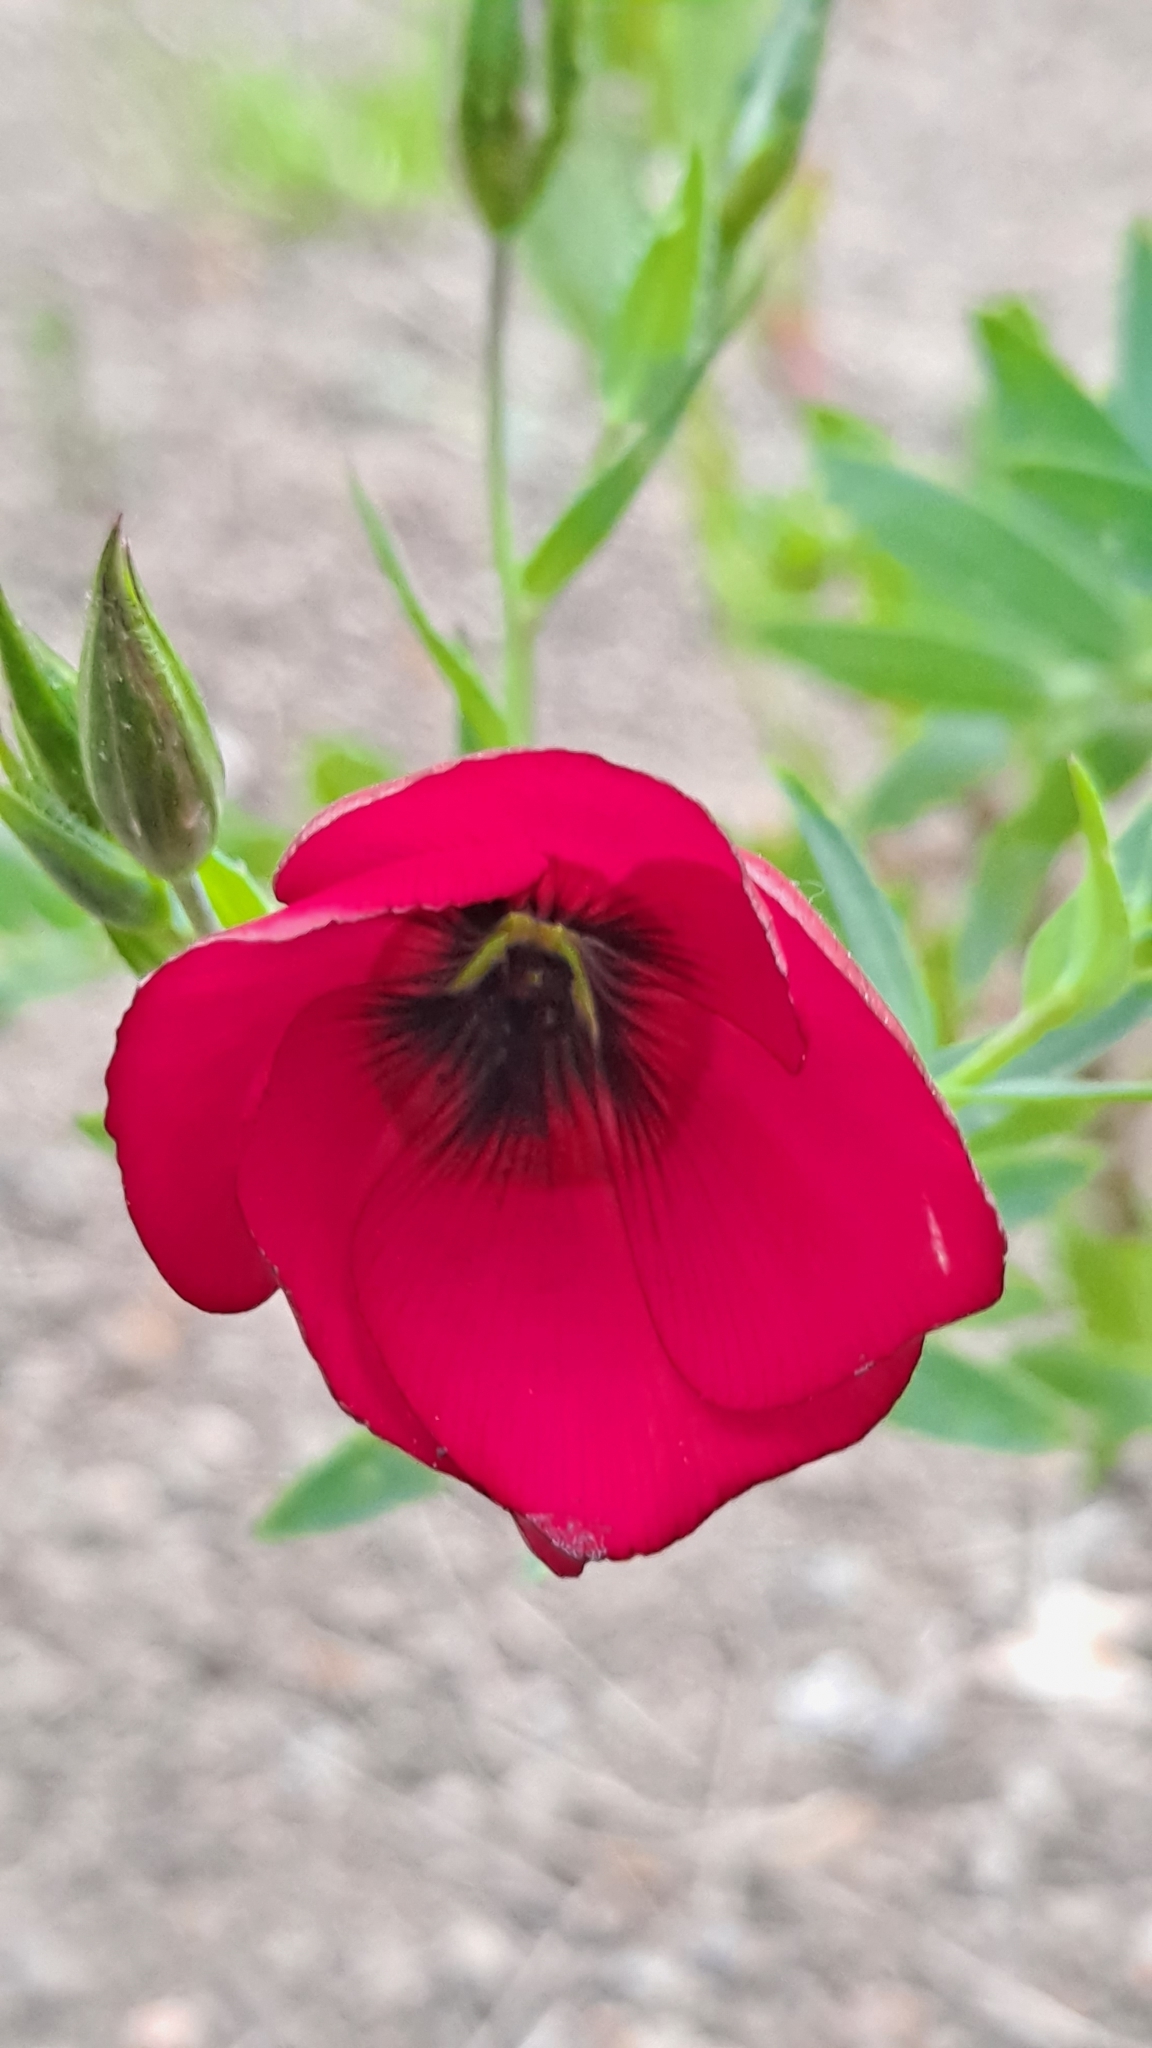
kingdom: Plantae
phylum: Tracheophyta
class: Magnoliopsida
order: Malpighiales
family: Linaceae
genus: Linum
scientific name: Linum grandiflorum
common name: Crimson flax
